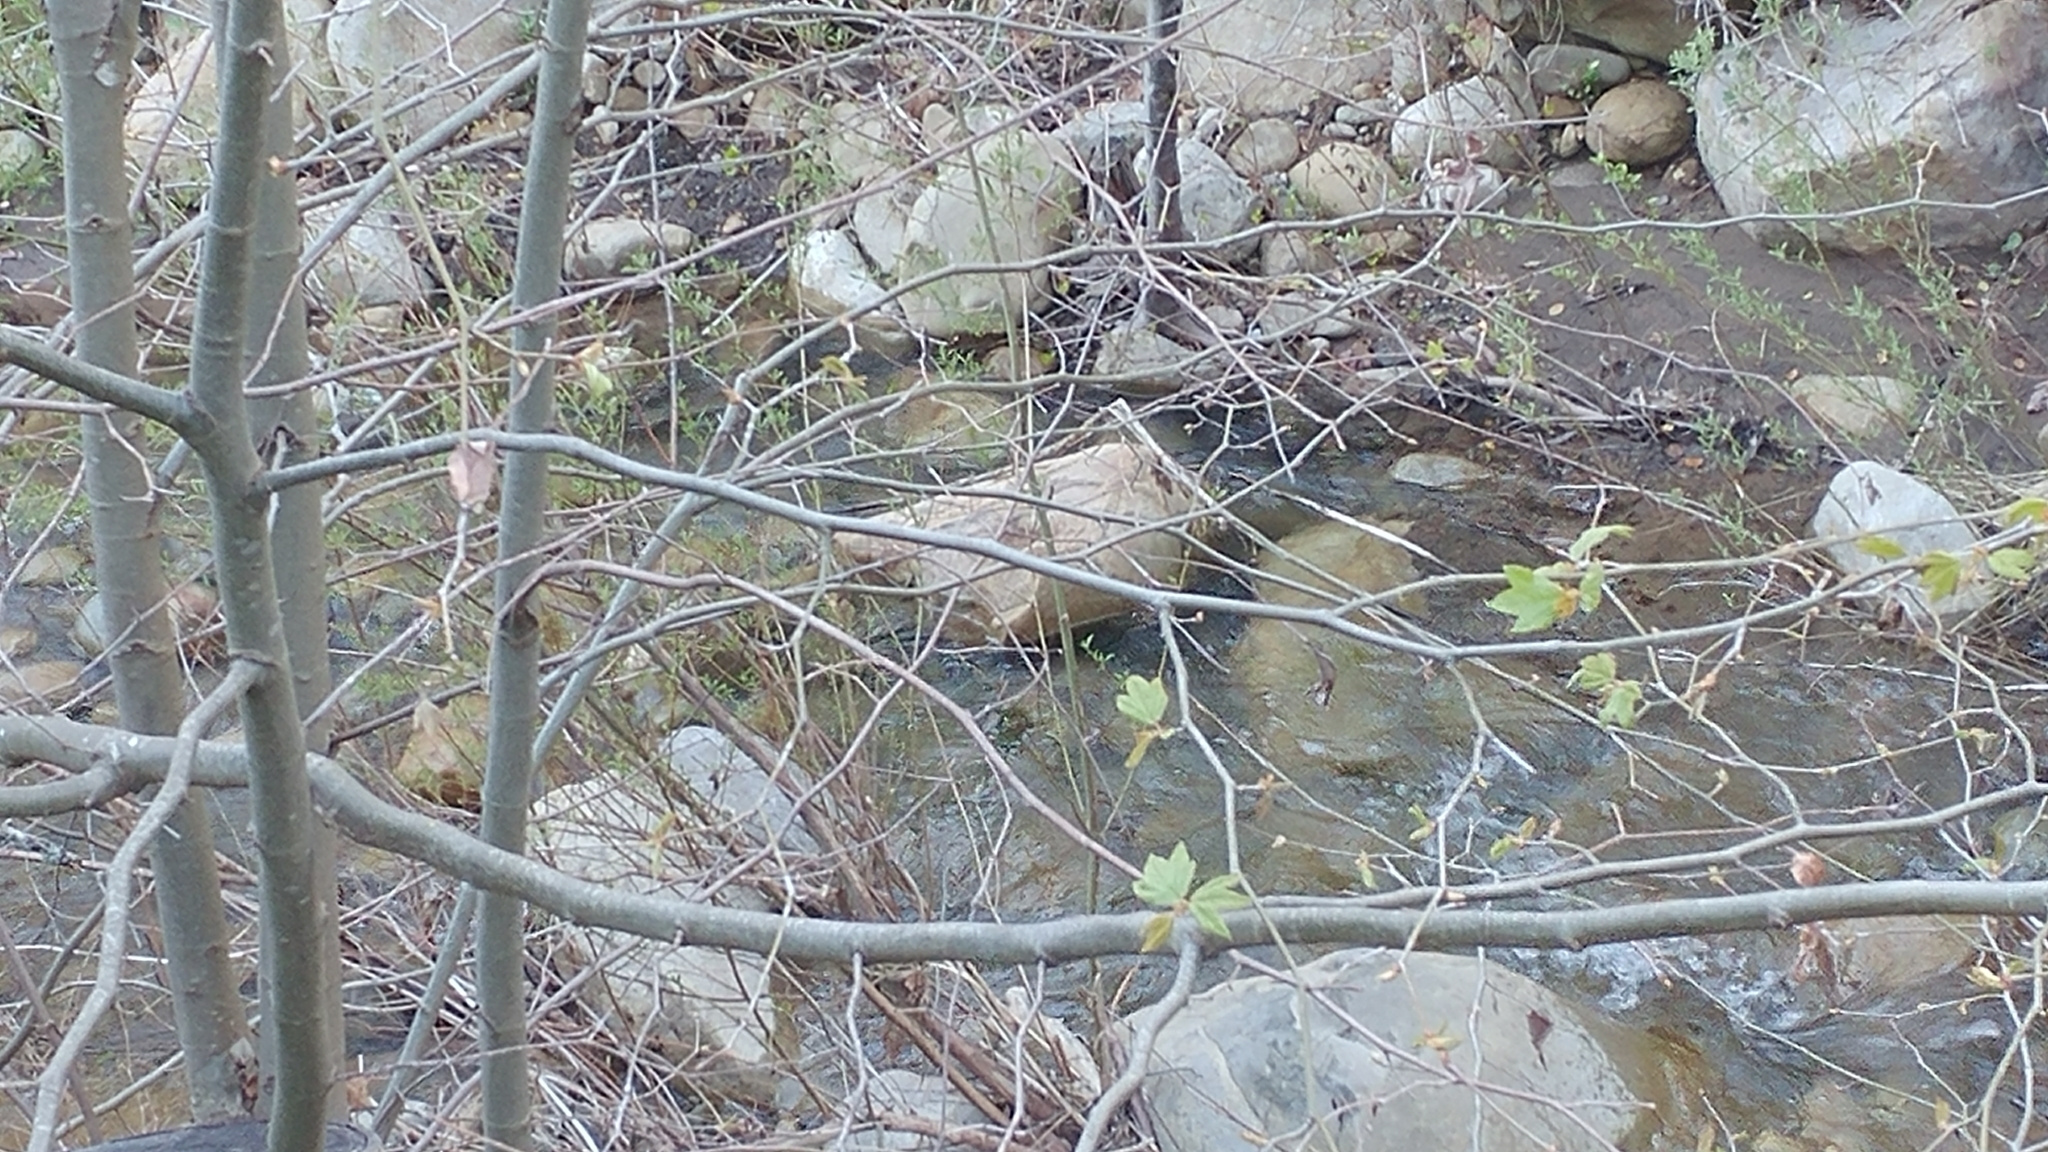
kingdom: Plantae
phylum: Tracheophyta
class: Magnoliopsida
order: Proteales
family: Platanaceae
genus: Platanus
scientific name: Platanus racemosa
